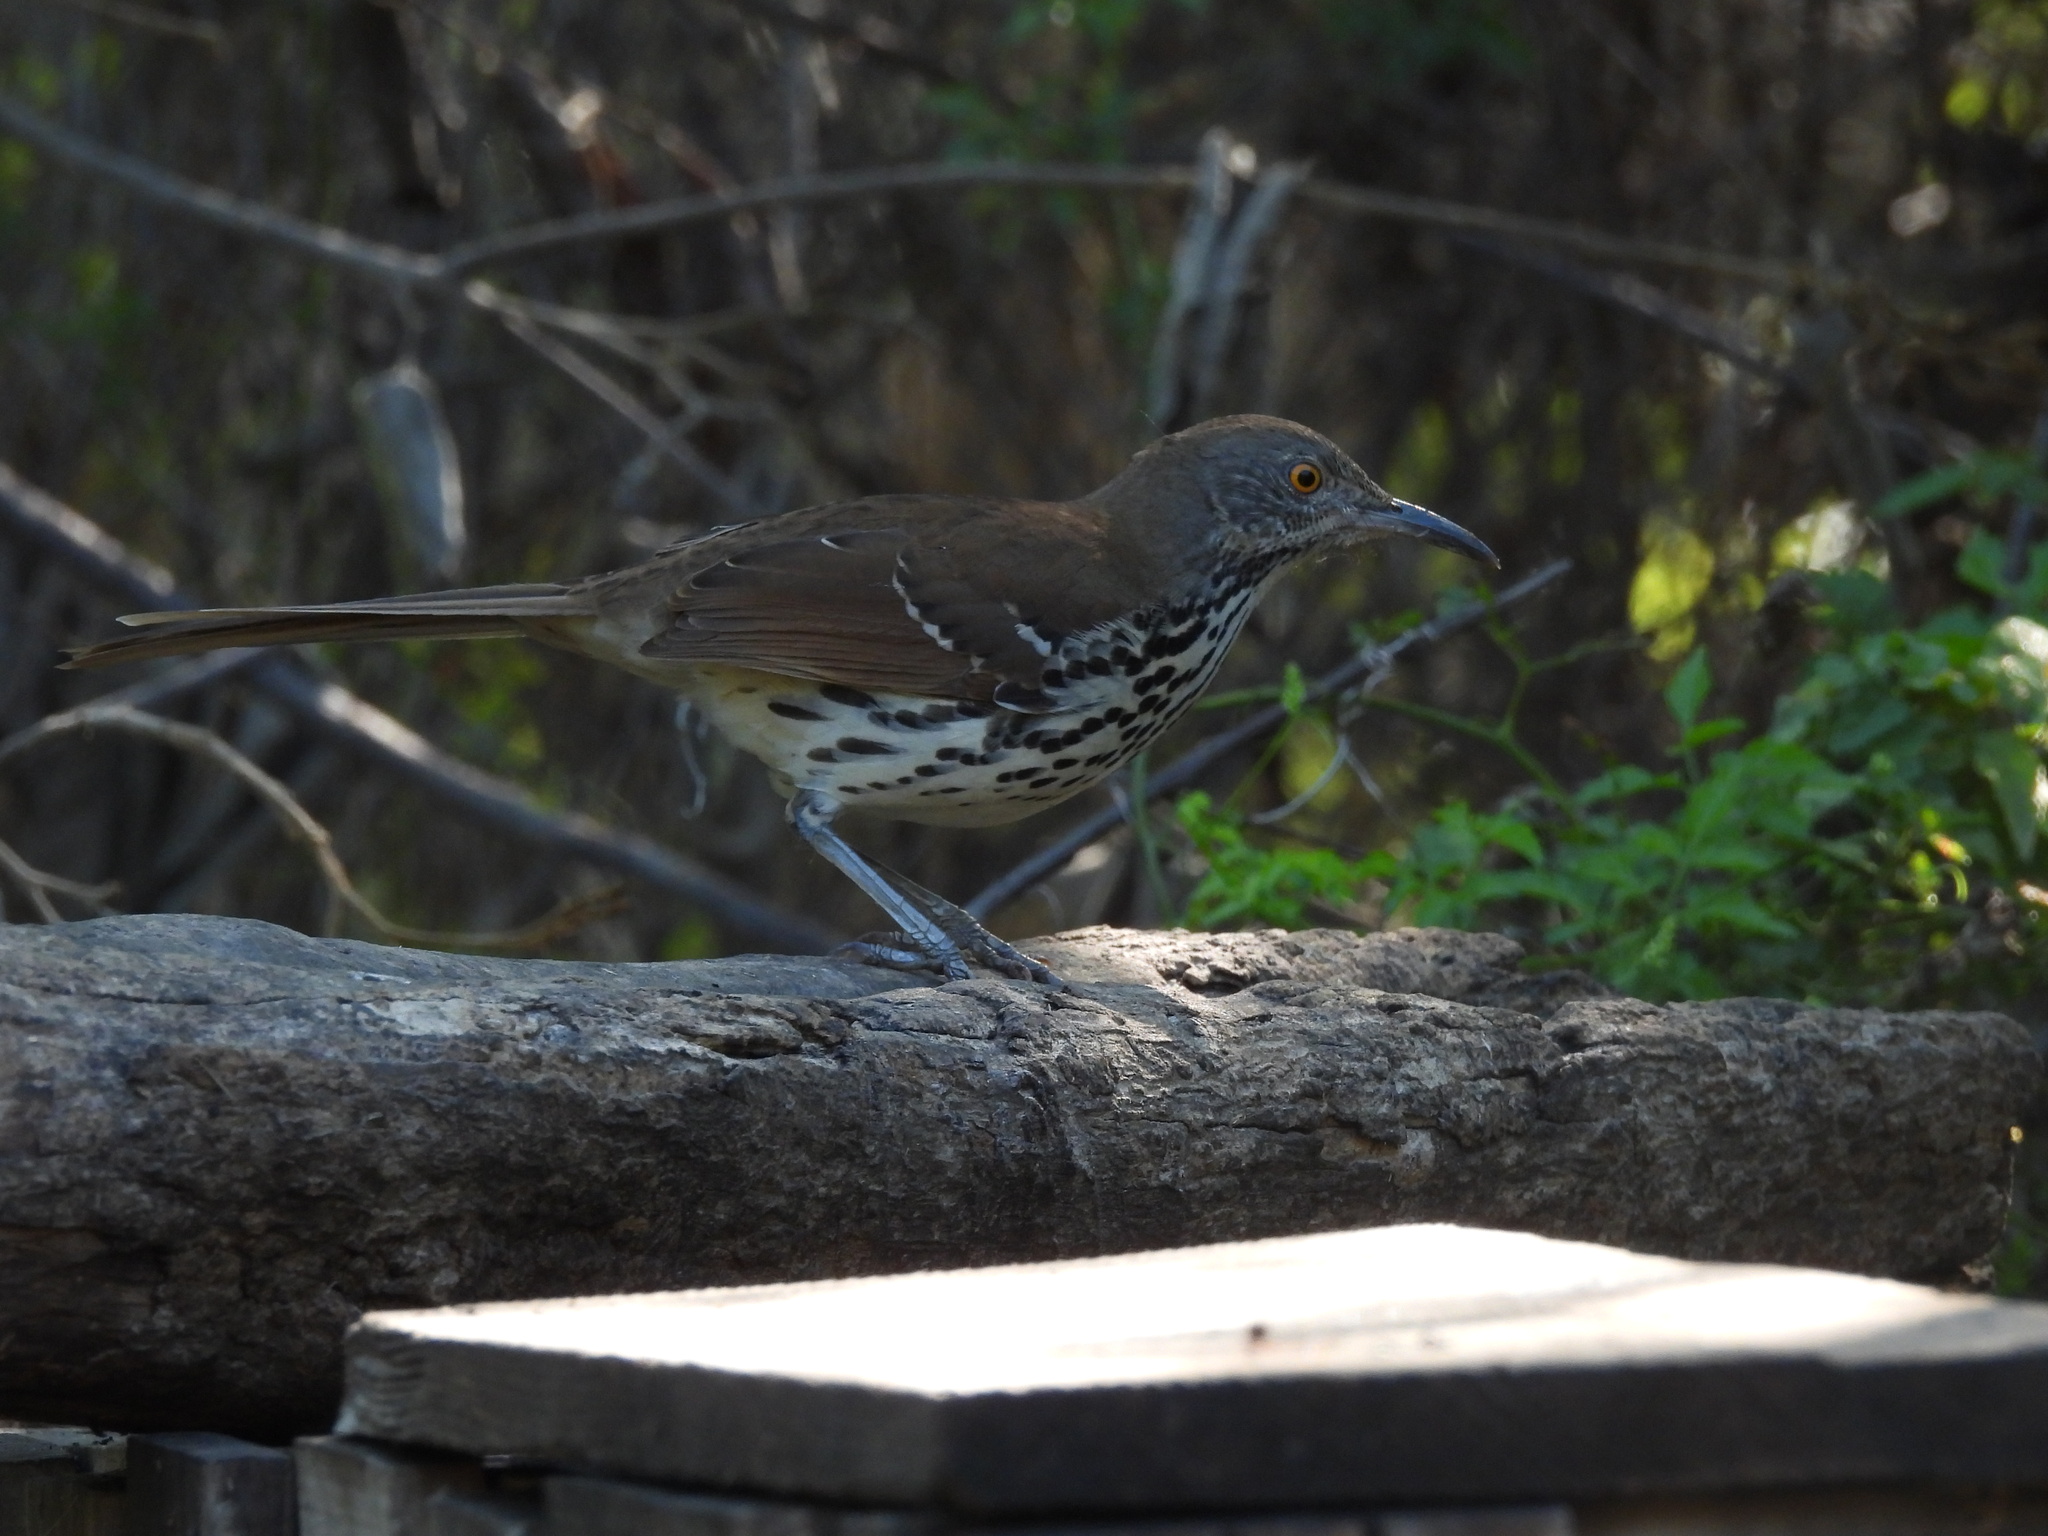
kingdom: Animalia
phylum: Chordata
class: Aves
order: Passeriformes
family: Mimidae
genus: Toxostoma
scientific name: Toxostoma longirostre
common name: Long-billed thrasher
